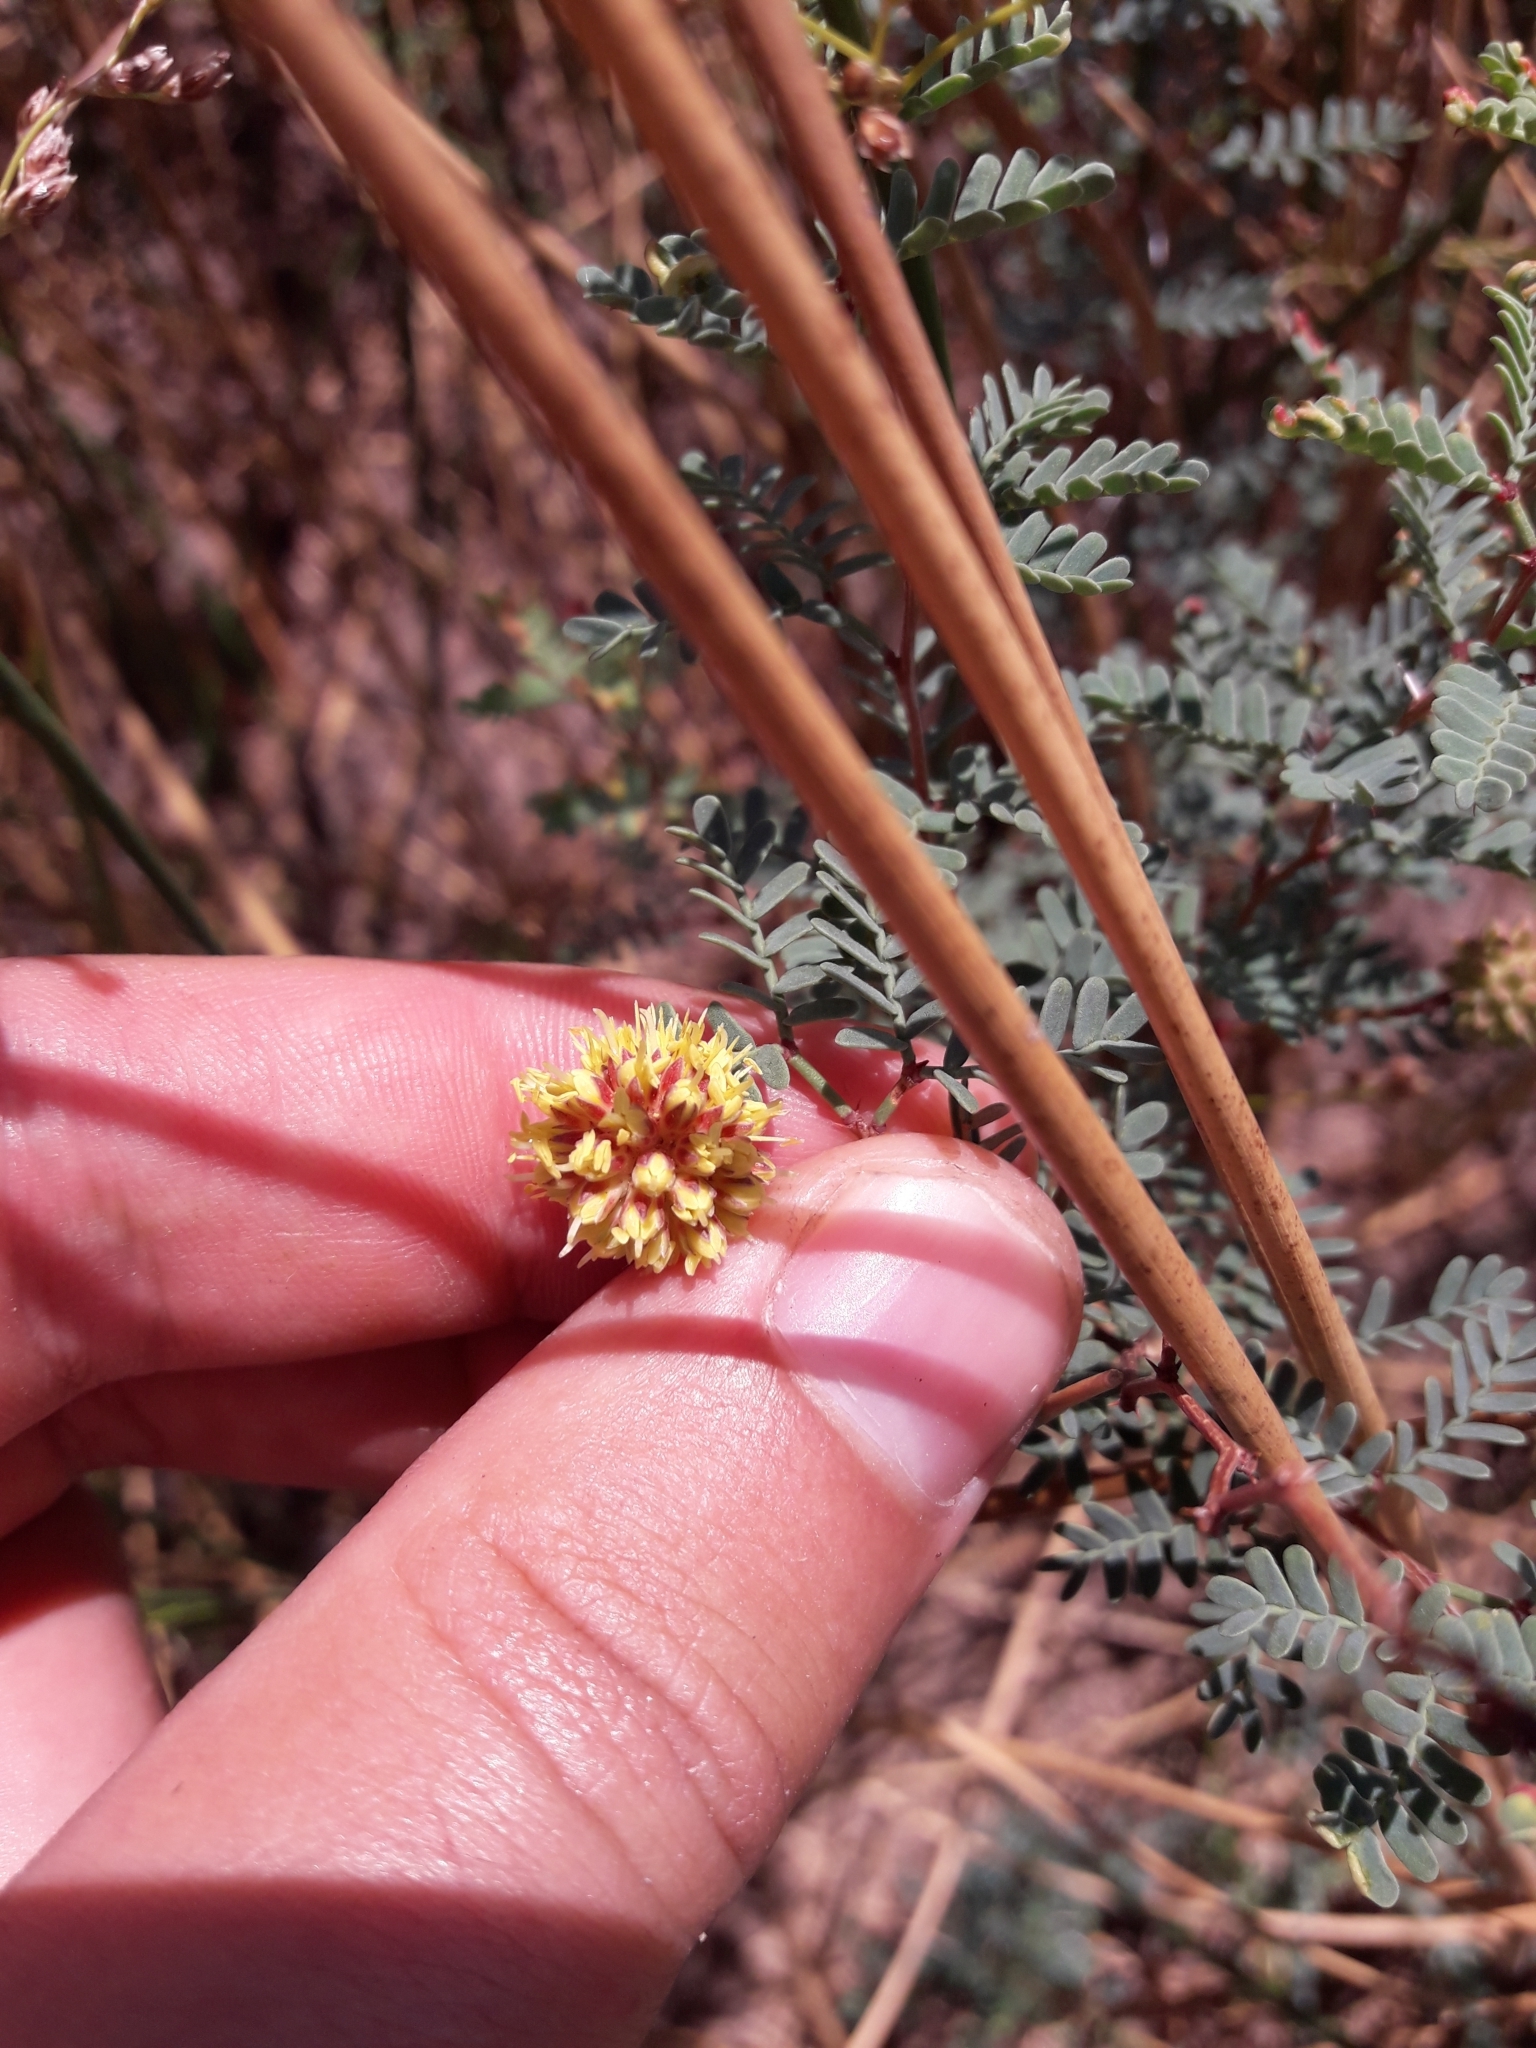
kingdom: Plantae
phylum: Tracheophyta
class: Magnoliopsida
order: Fabales
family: Fabaceae
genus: Prosopis
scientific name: Prosopis strombulifera
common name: Creeping mesquite
